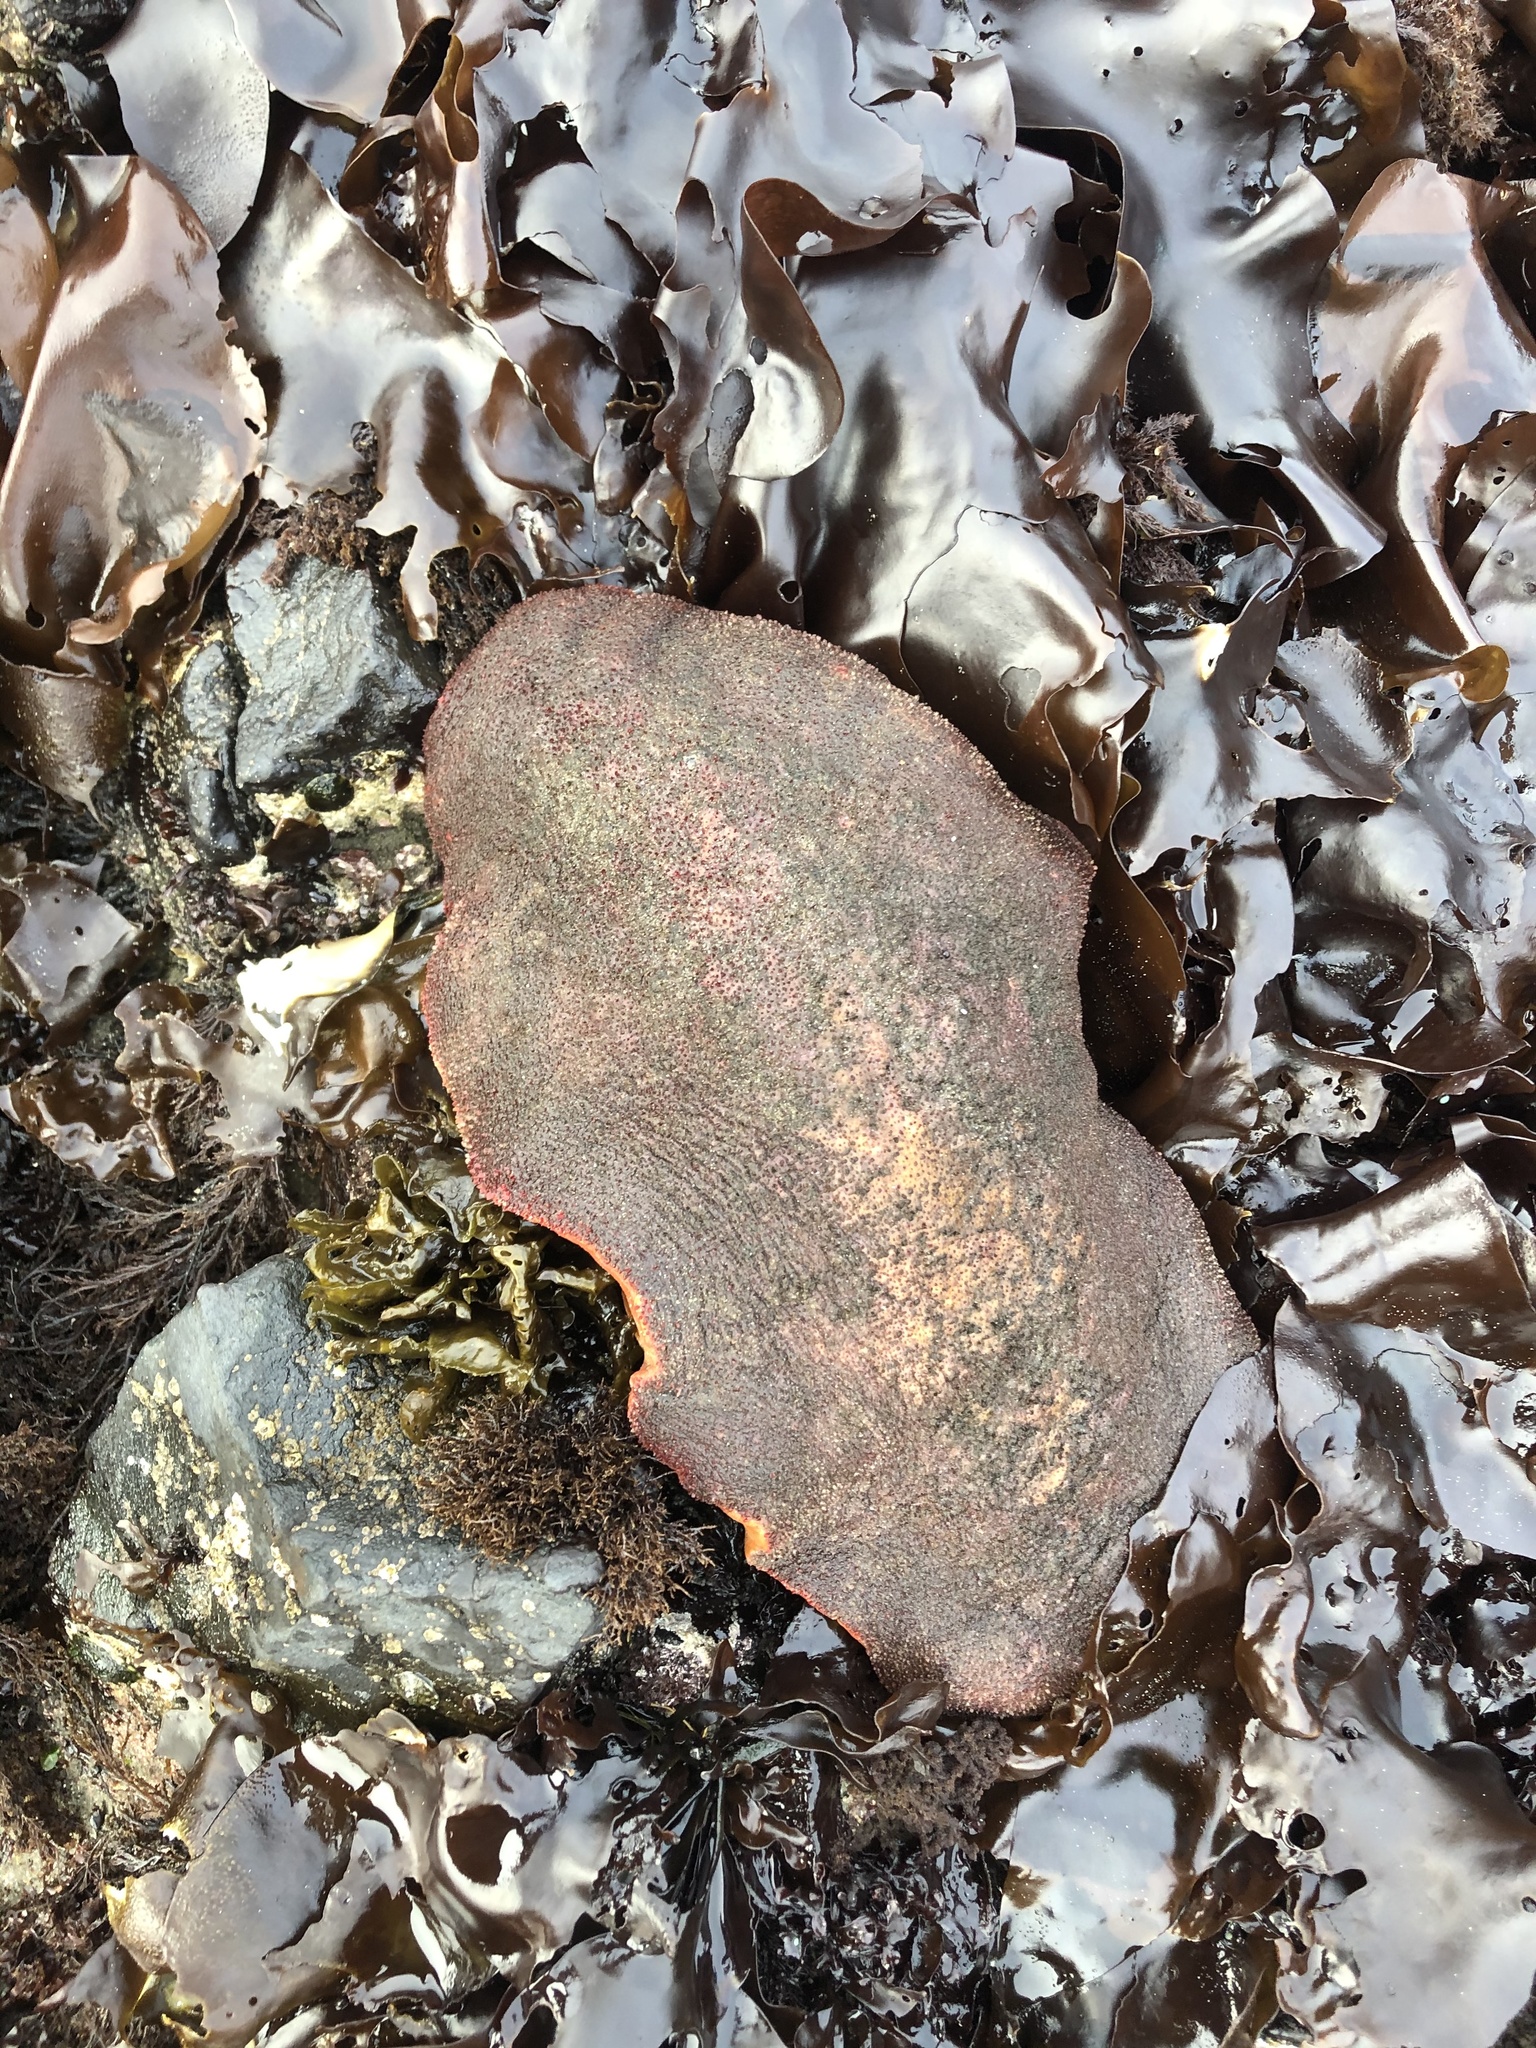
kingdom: Animalia
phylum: Mollusca
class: Polyplacophora
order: Chitonida
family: Acanthochitonidae
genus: Cryptochiton
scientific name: Cryptochiton stelleri
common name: Giant pacific chiton
